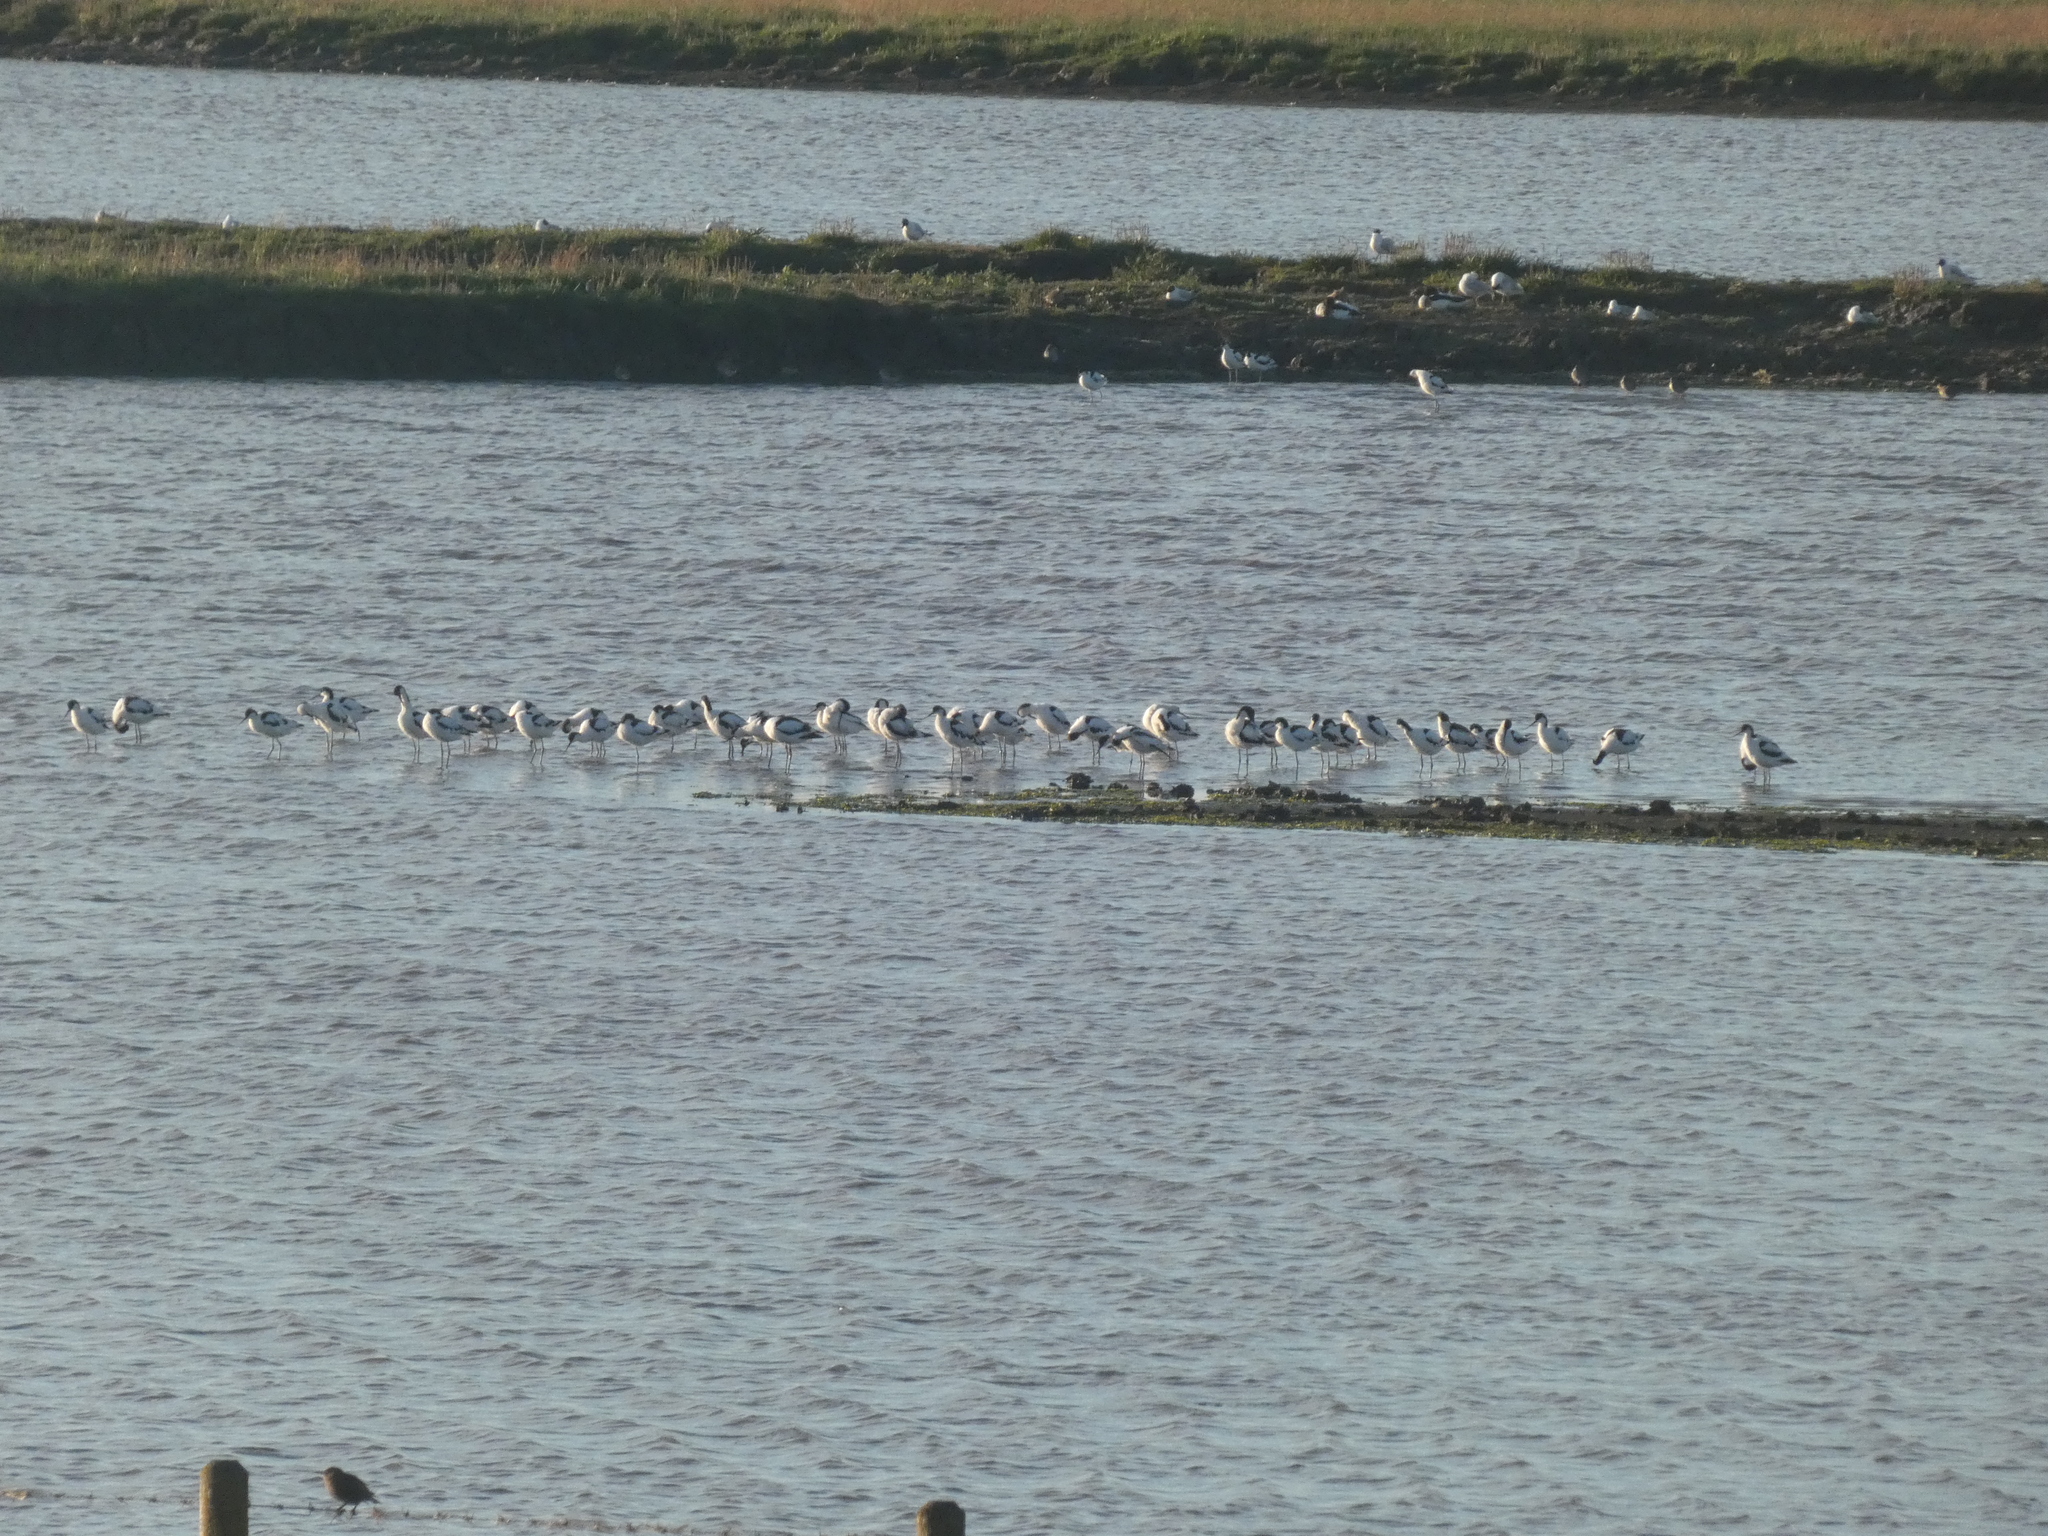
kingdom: Animalia
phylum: Chordata
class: Aves
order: Charadriiformes
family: Recurvirostridae
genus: Recurvirostra
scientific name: Recurvirostra avosetta
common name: Pied avocet
